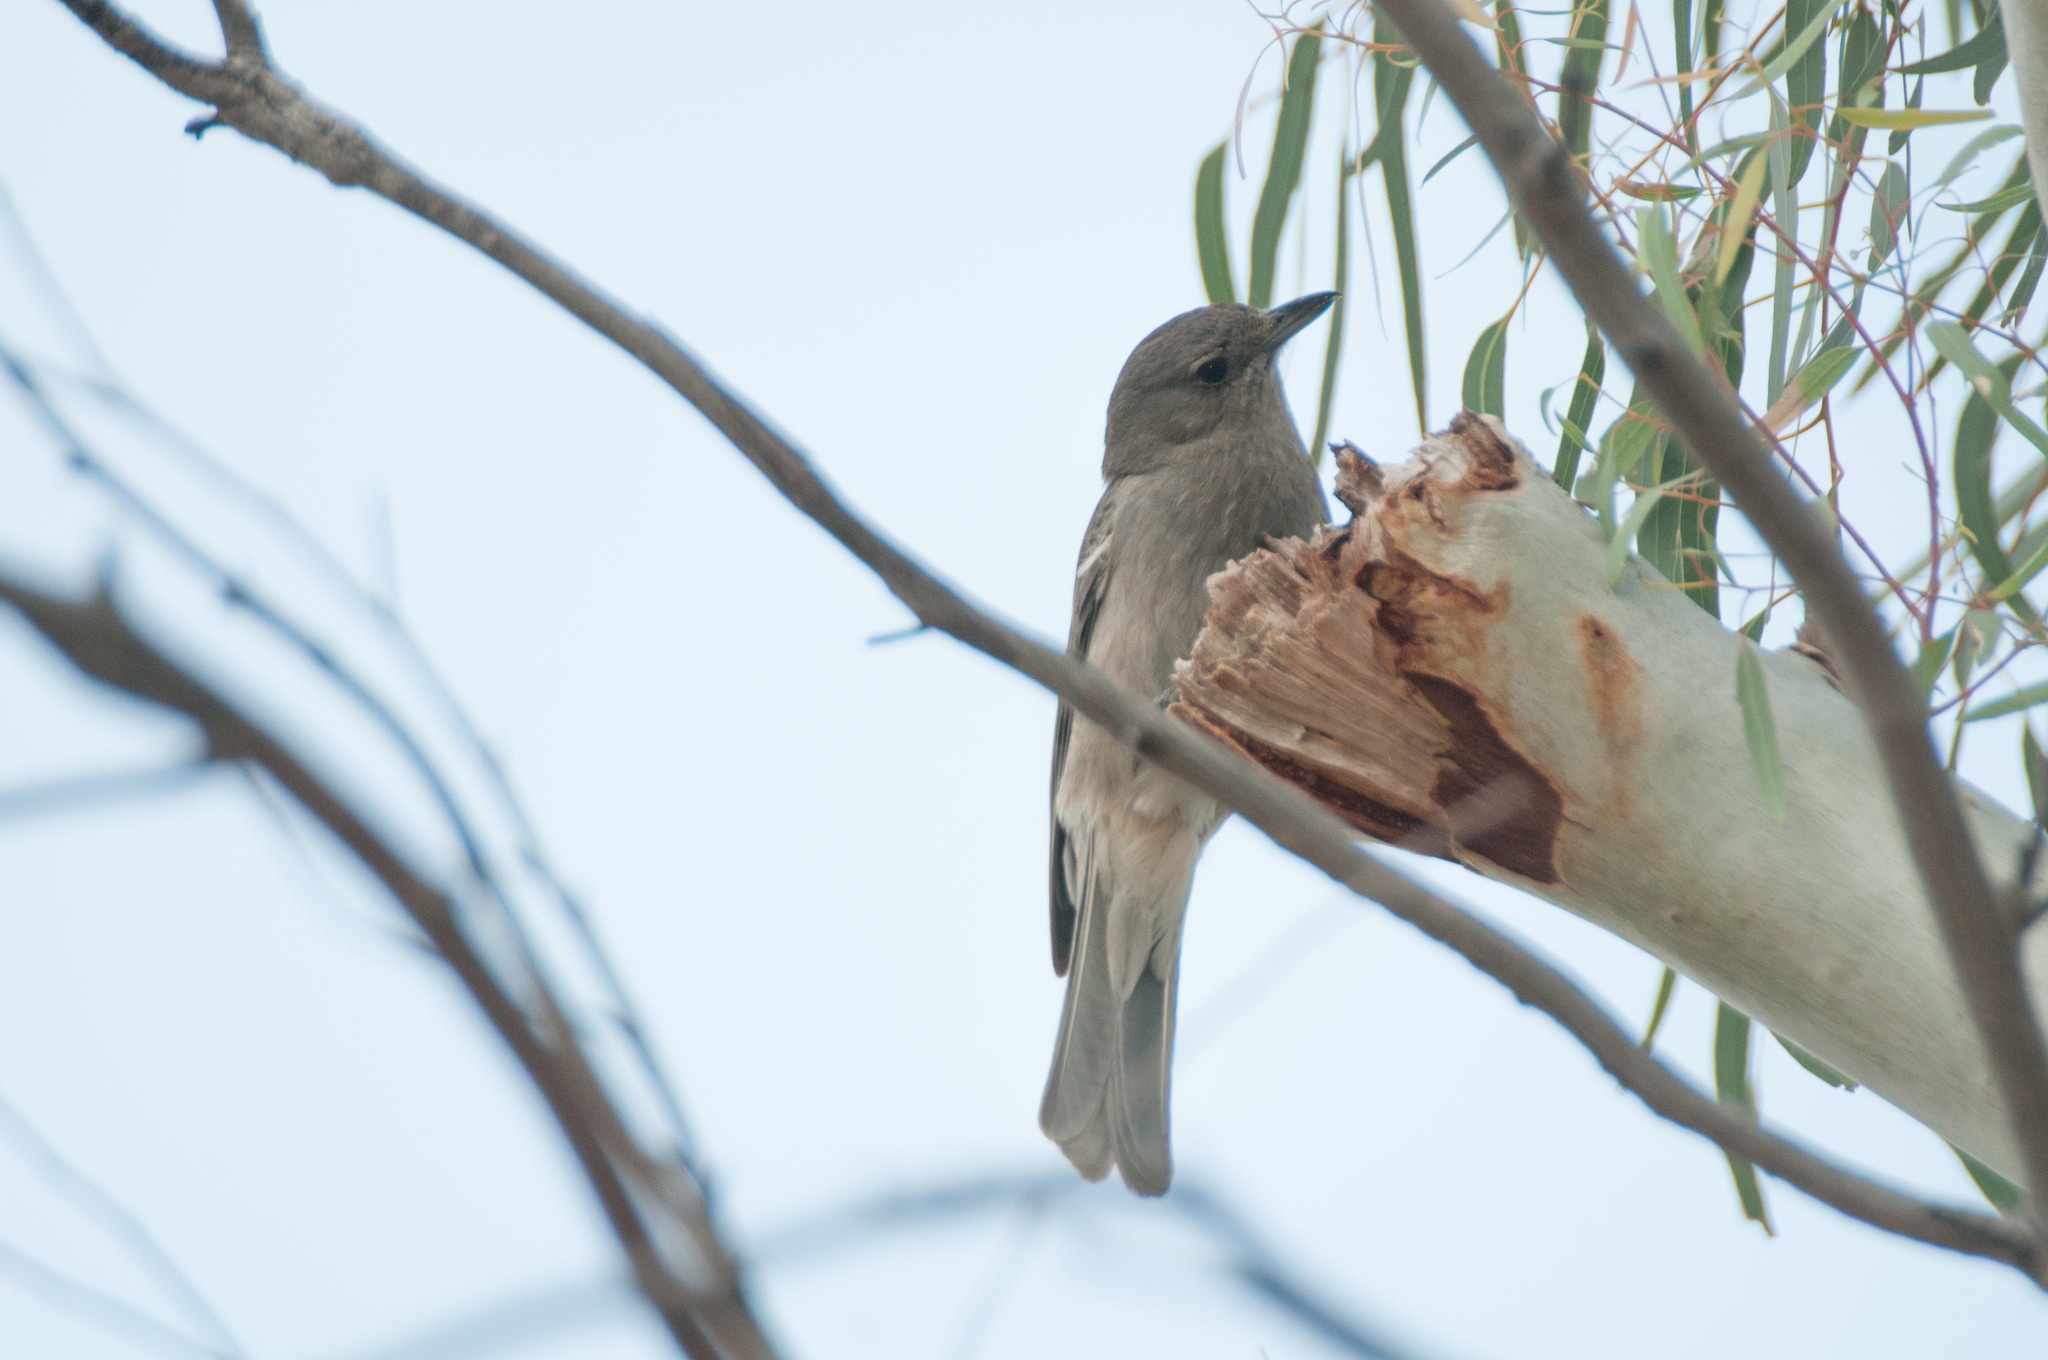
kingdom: Animalia
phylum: Chordata
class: Aves
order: Passeriformes
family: Pachycephalidae
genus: Colluricincla
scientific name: Colluricincla harmonica
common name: Grey shrikethrush
